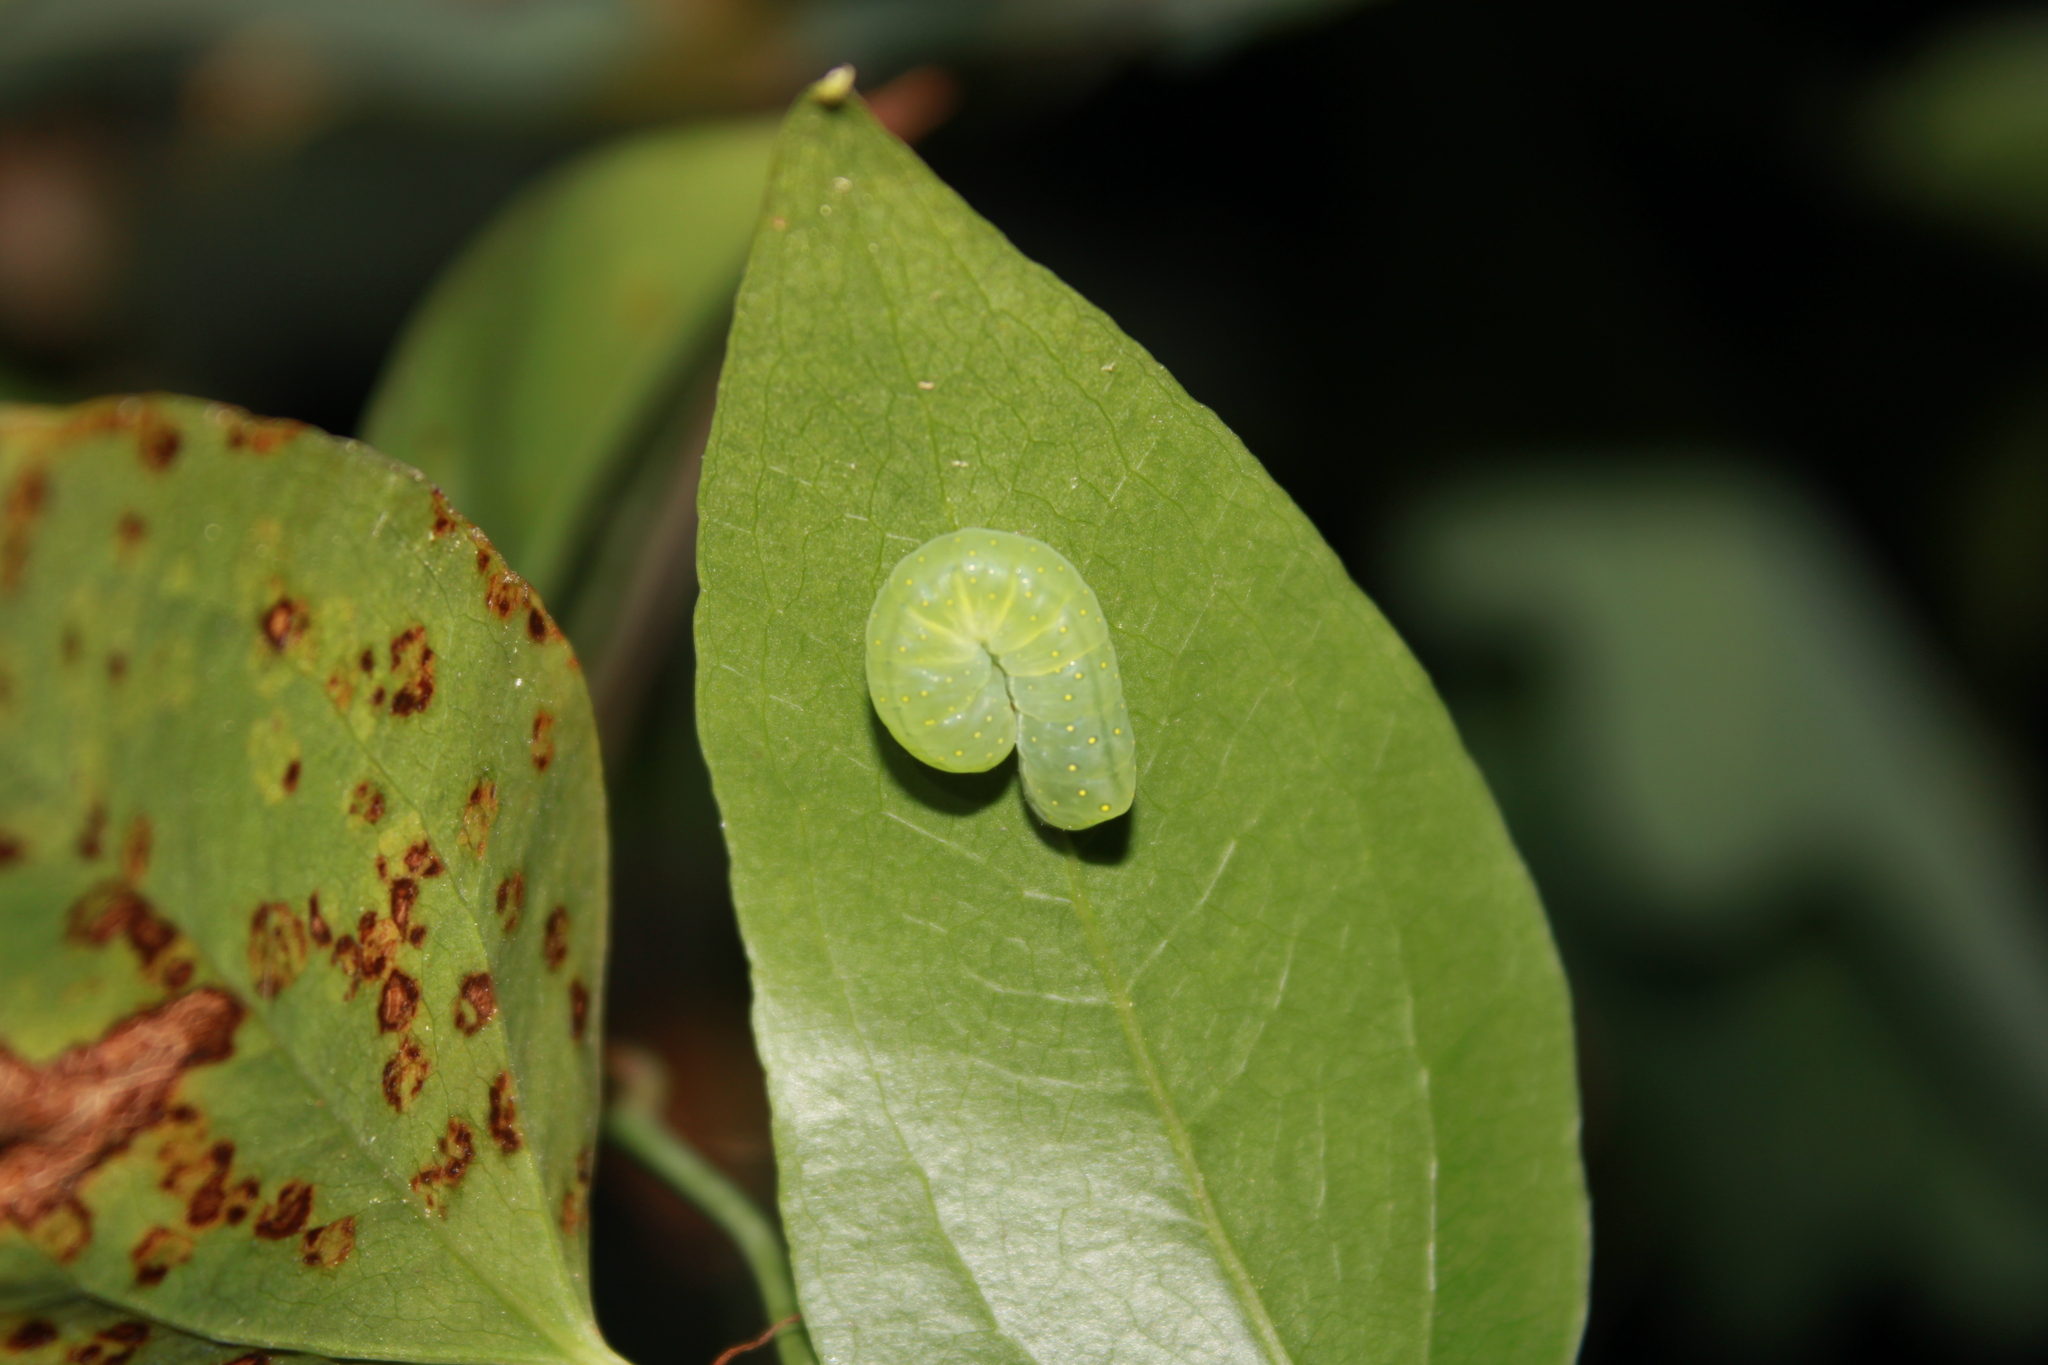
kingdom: Animalia
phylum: Arthropoda
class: Insecta
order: Lepidoptera
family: Noctuidae
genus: Phosphila
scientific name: Phosphila miselioides
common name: Spotted phosphila moth
